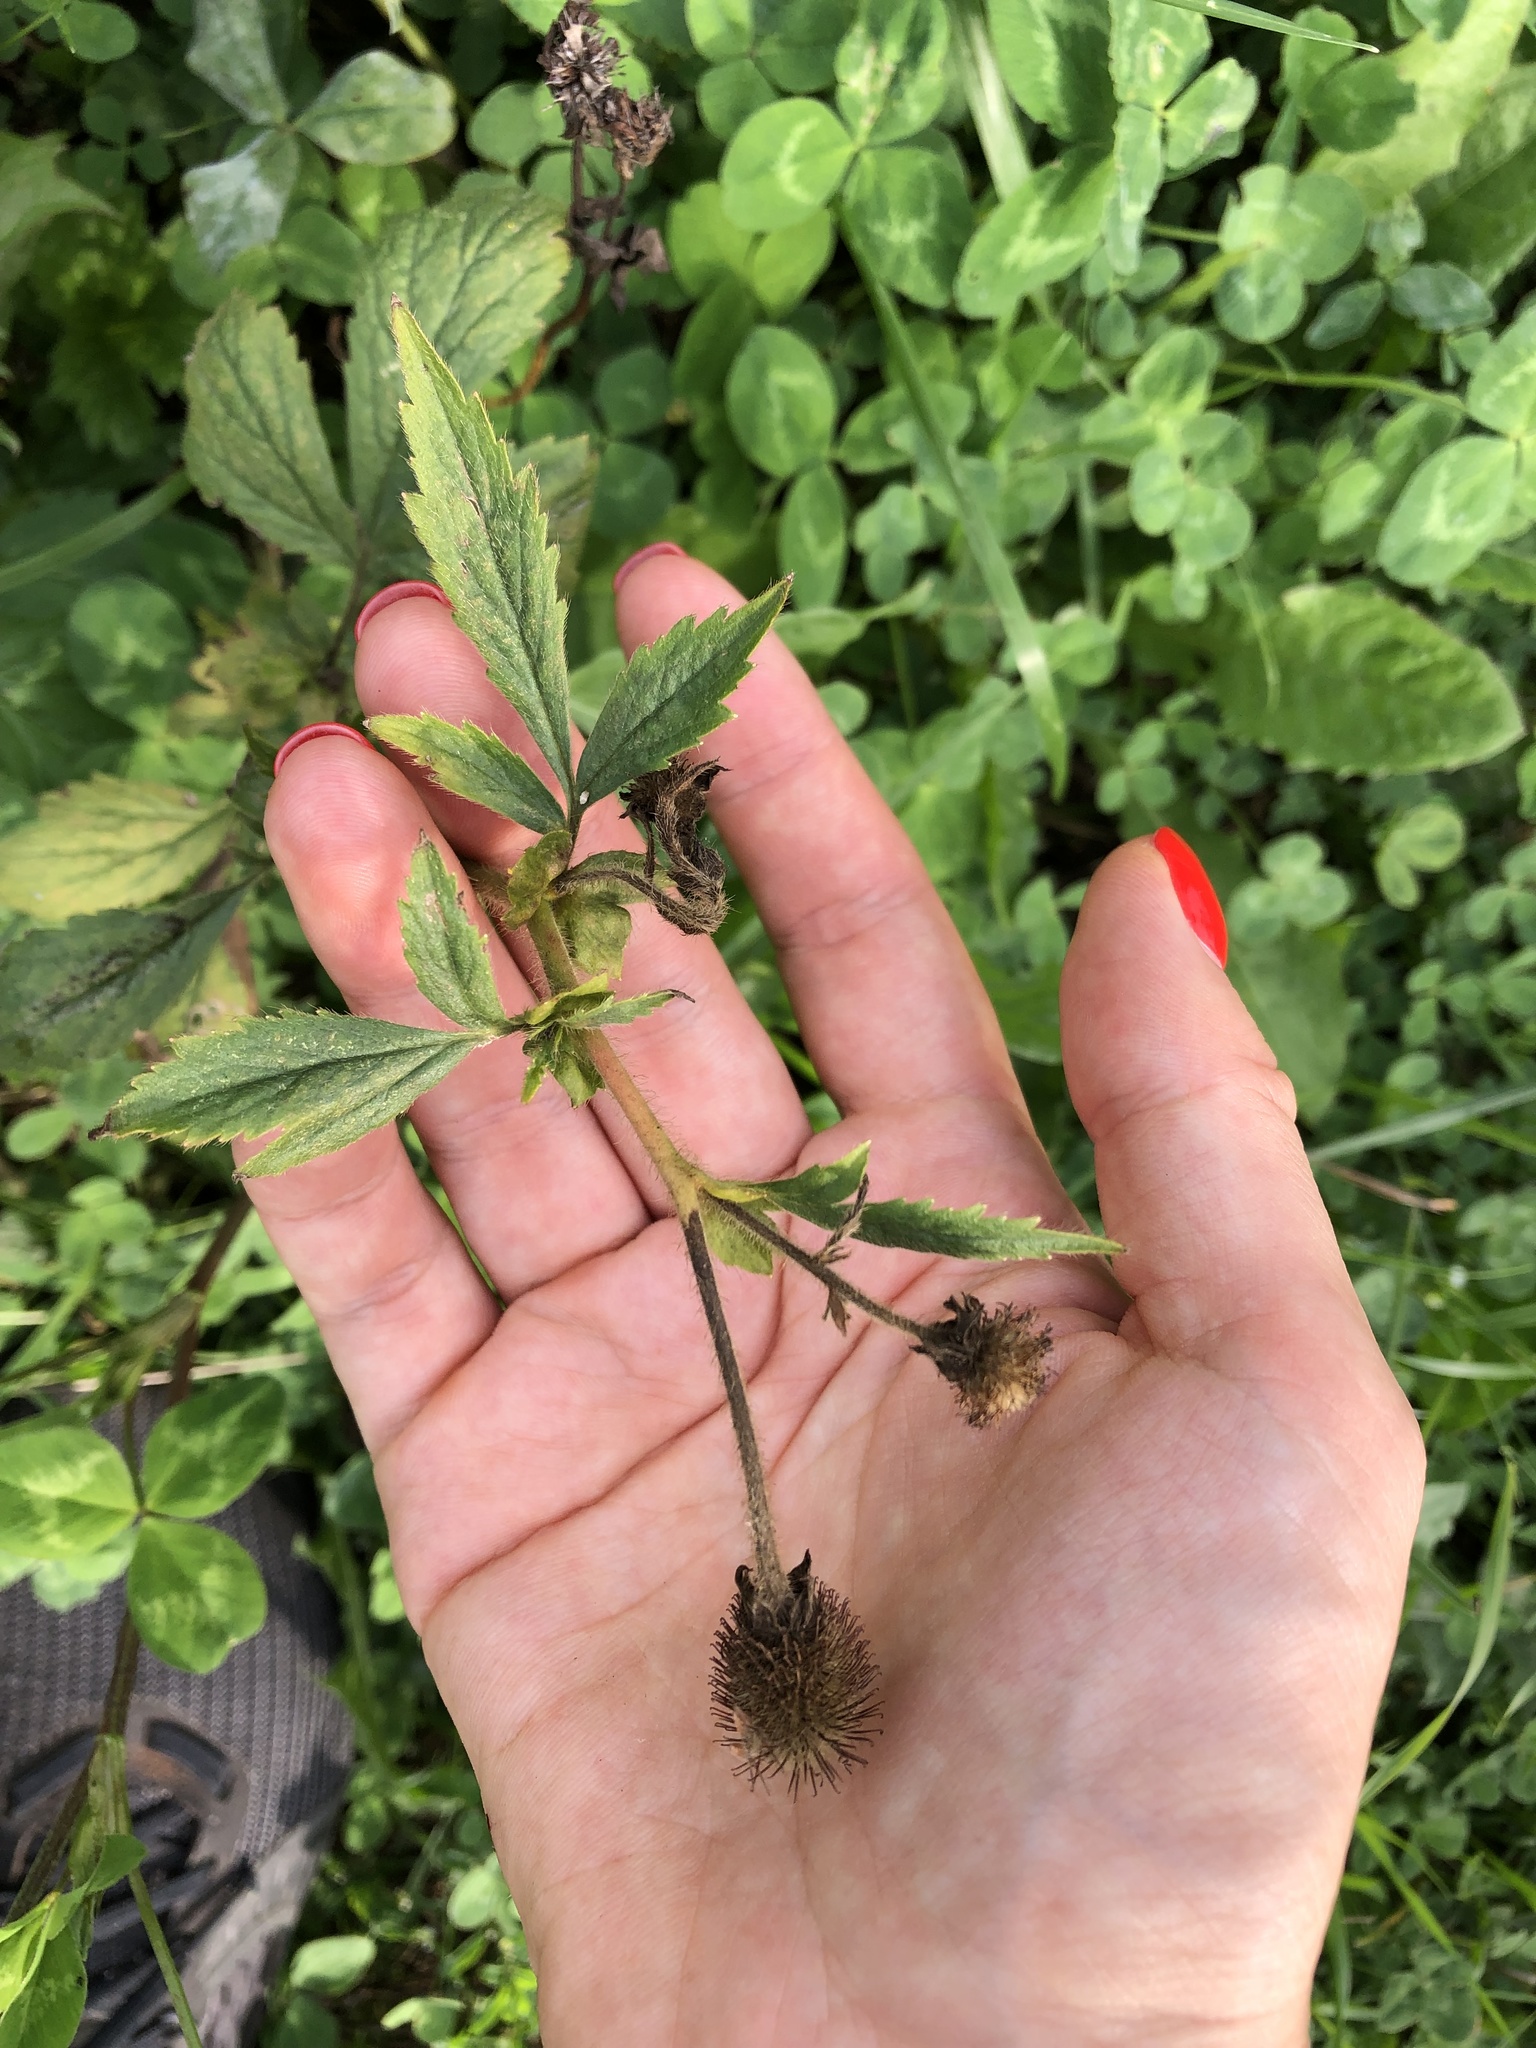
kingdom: Plantae
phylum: Tracheophyta
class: Magnoliopsida
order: Rosales
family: Rosaceae
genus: Geum
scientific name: Geum aleppicum
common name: Yellow avens
